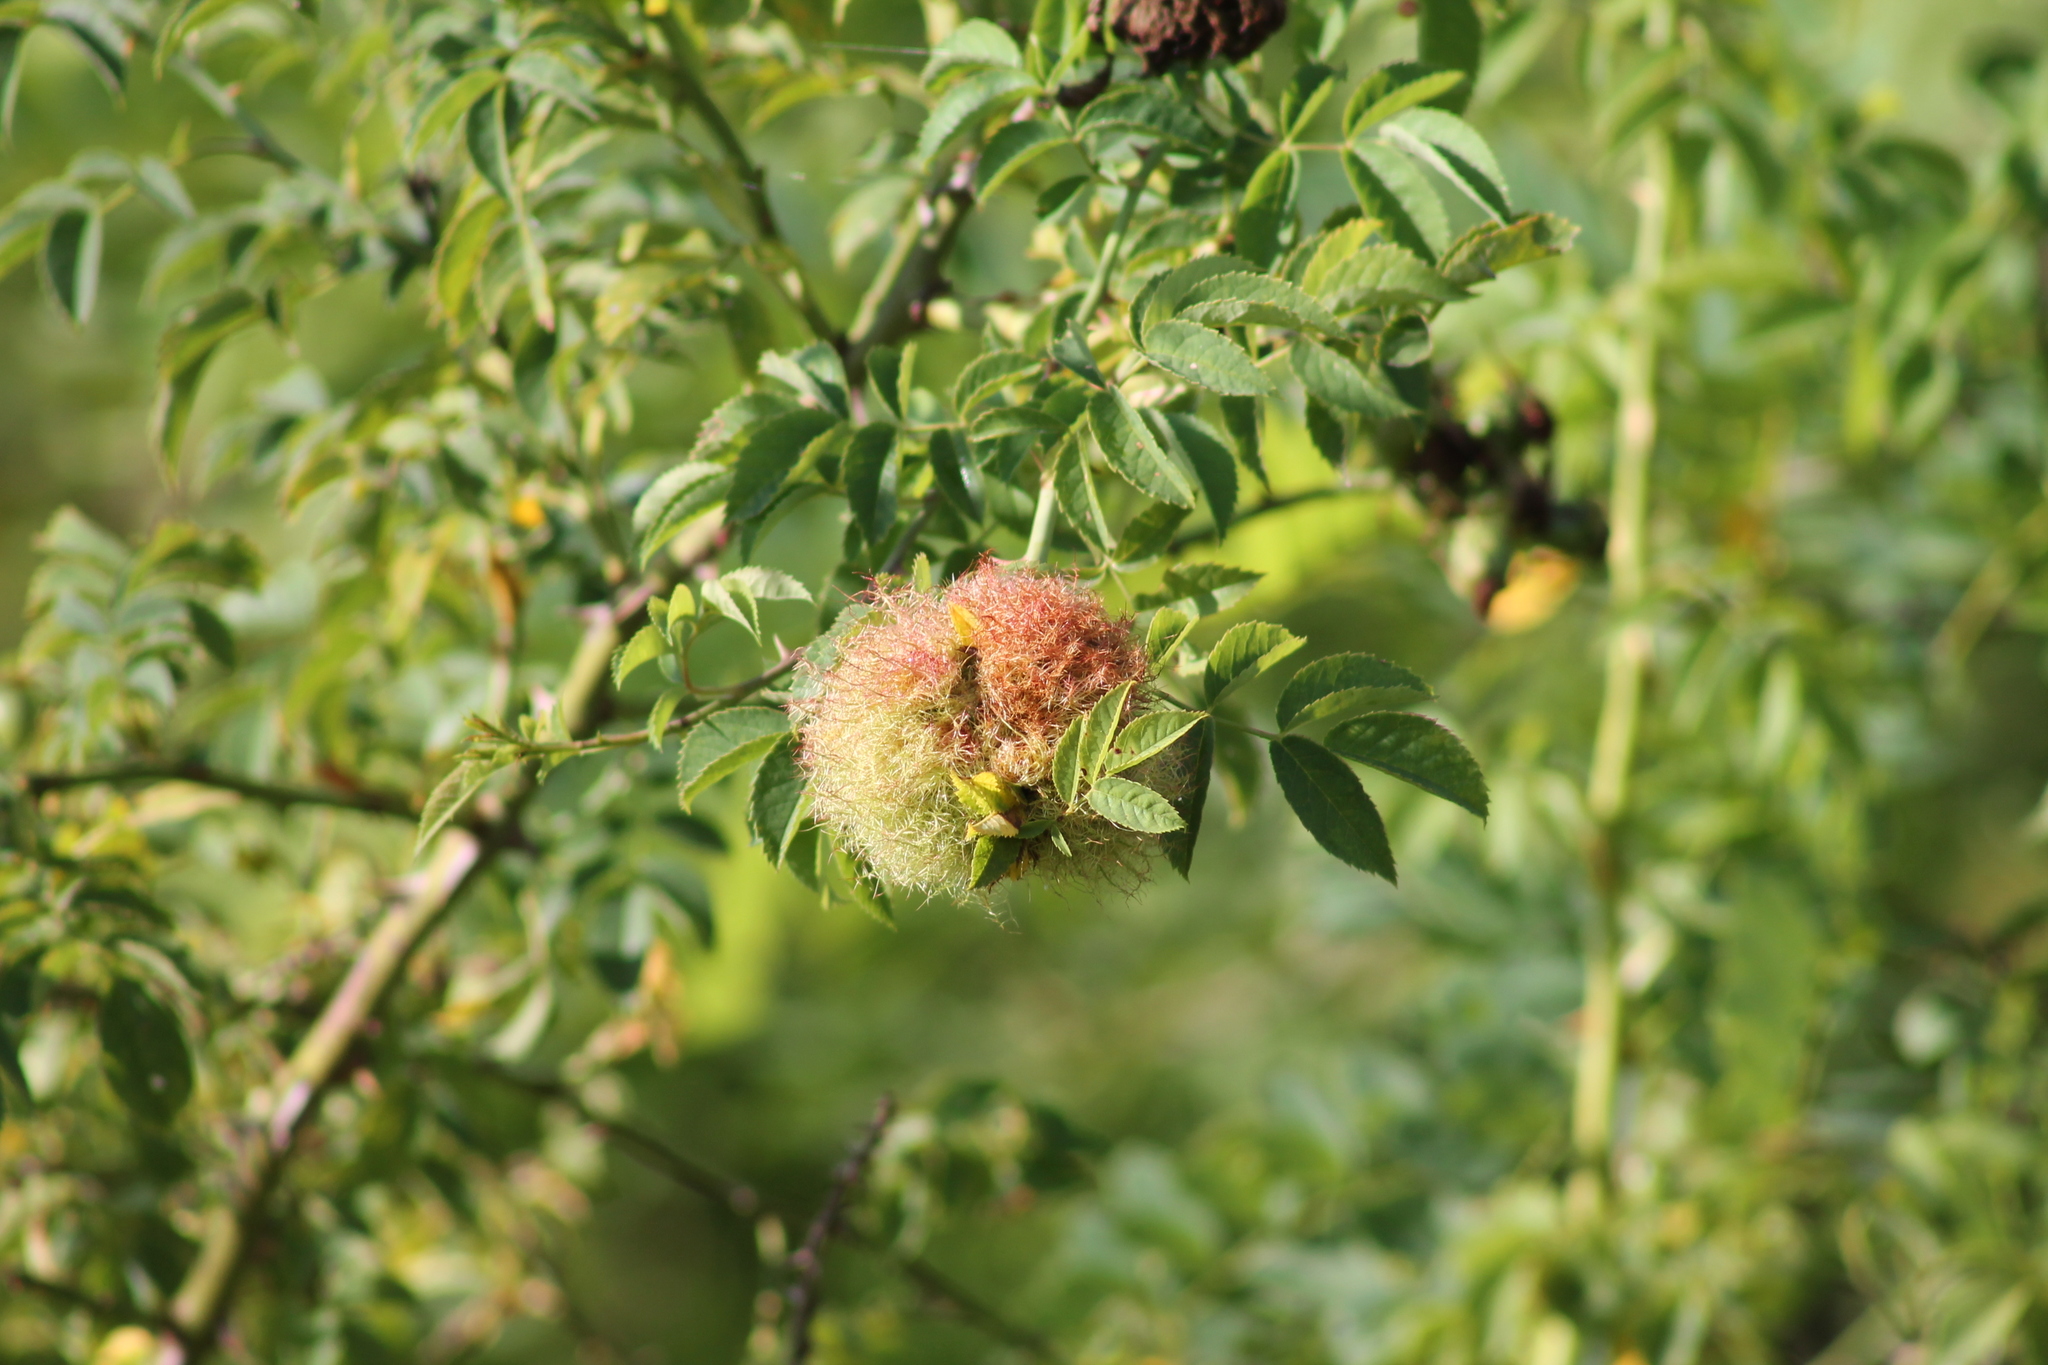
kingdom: Animalia
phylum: Arthropoda
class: Insecta
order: Hymenoptera
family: Cynipidae
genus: Diplolepis
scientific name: Diplolepis rosae
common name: Bedeguar gall
